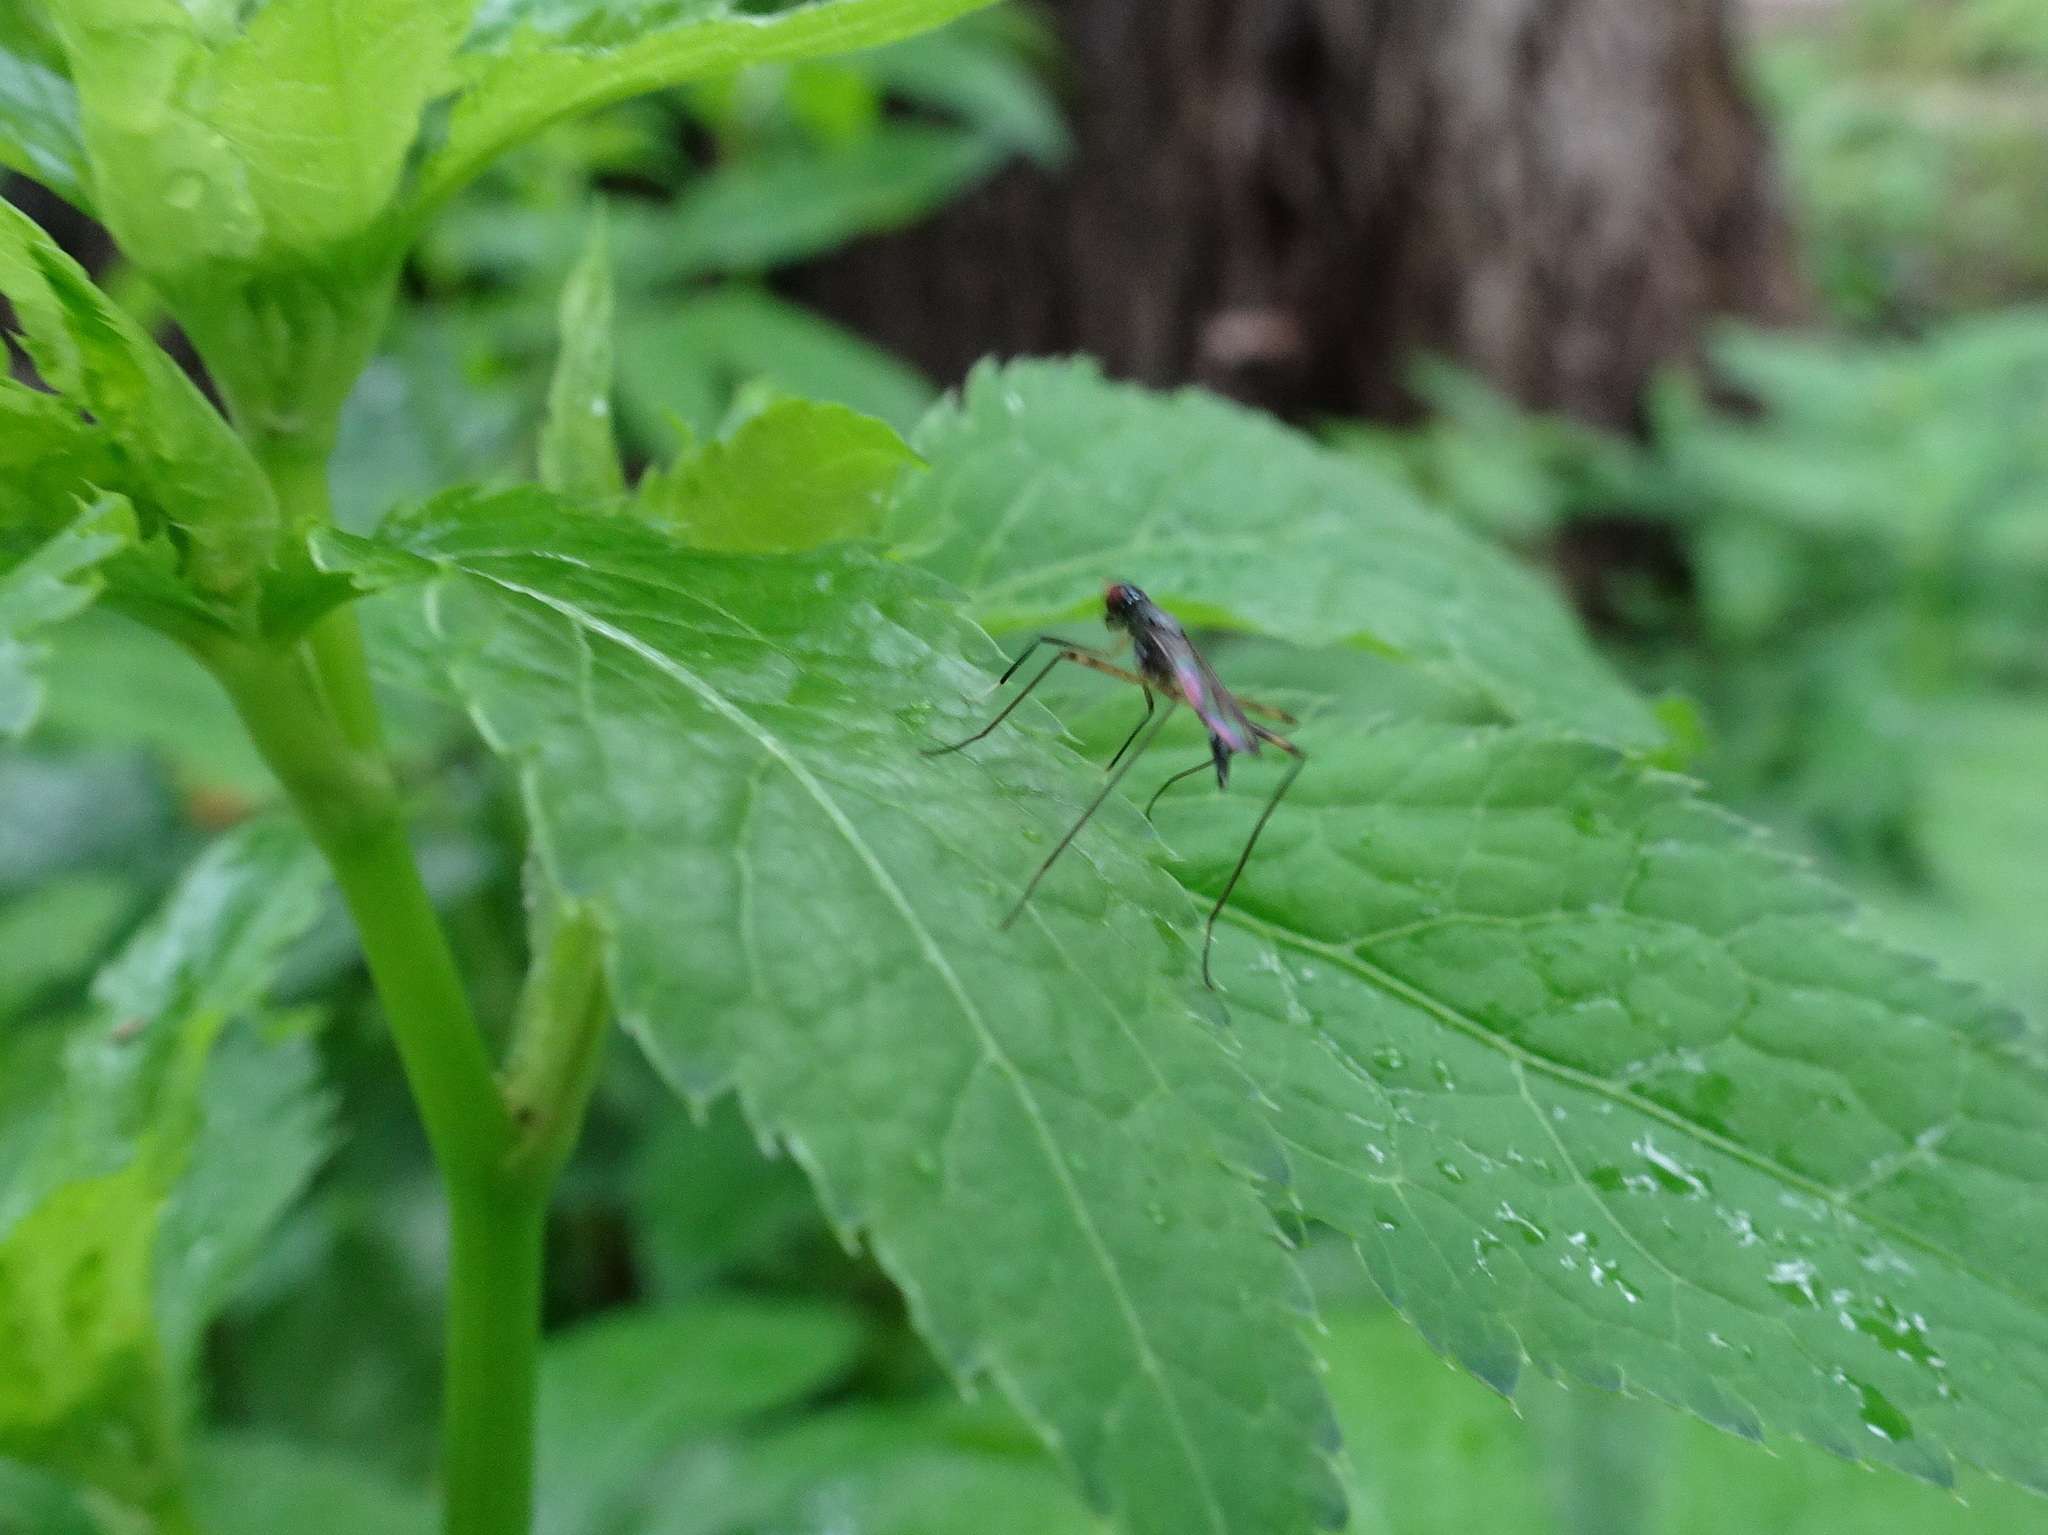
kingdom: Animalia
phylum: Arthropoda
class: Insecta
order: Diptera
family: Micropezidae
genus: Rainieria
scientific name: Rainieria antennaepes
